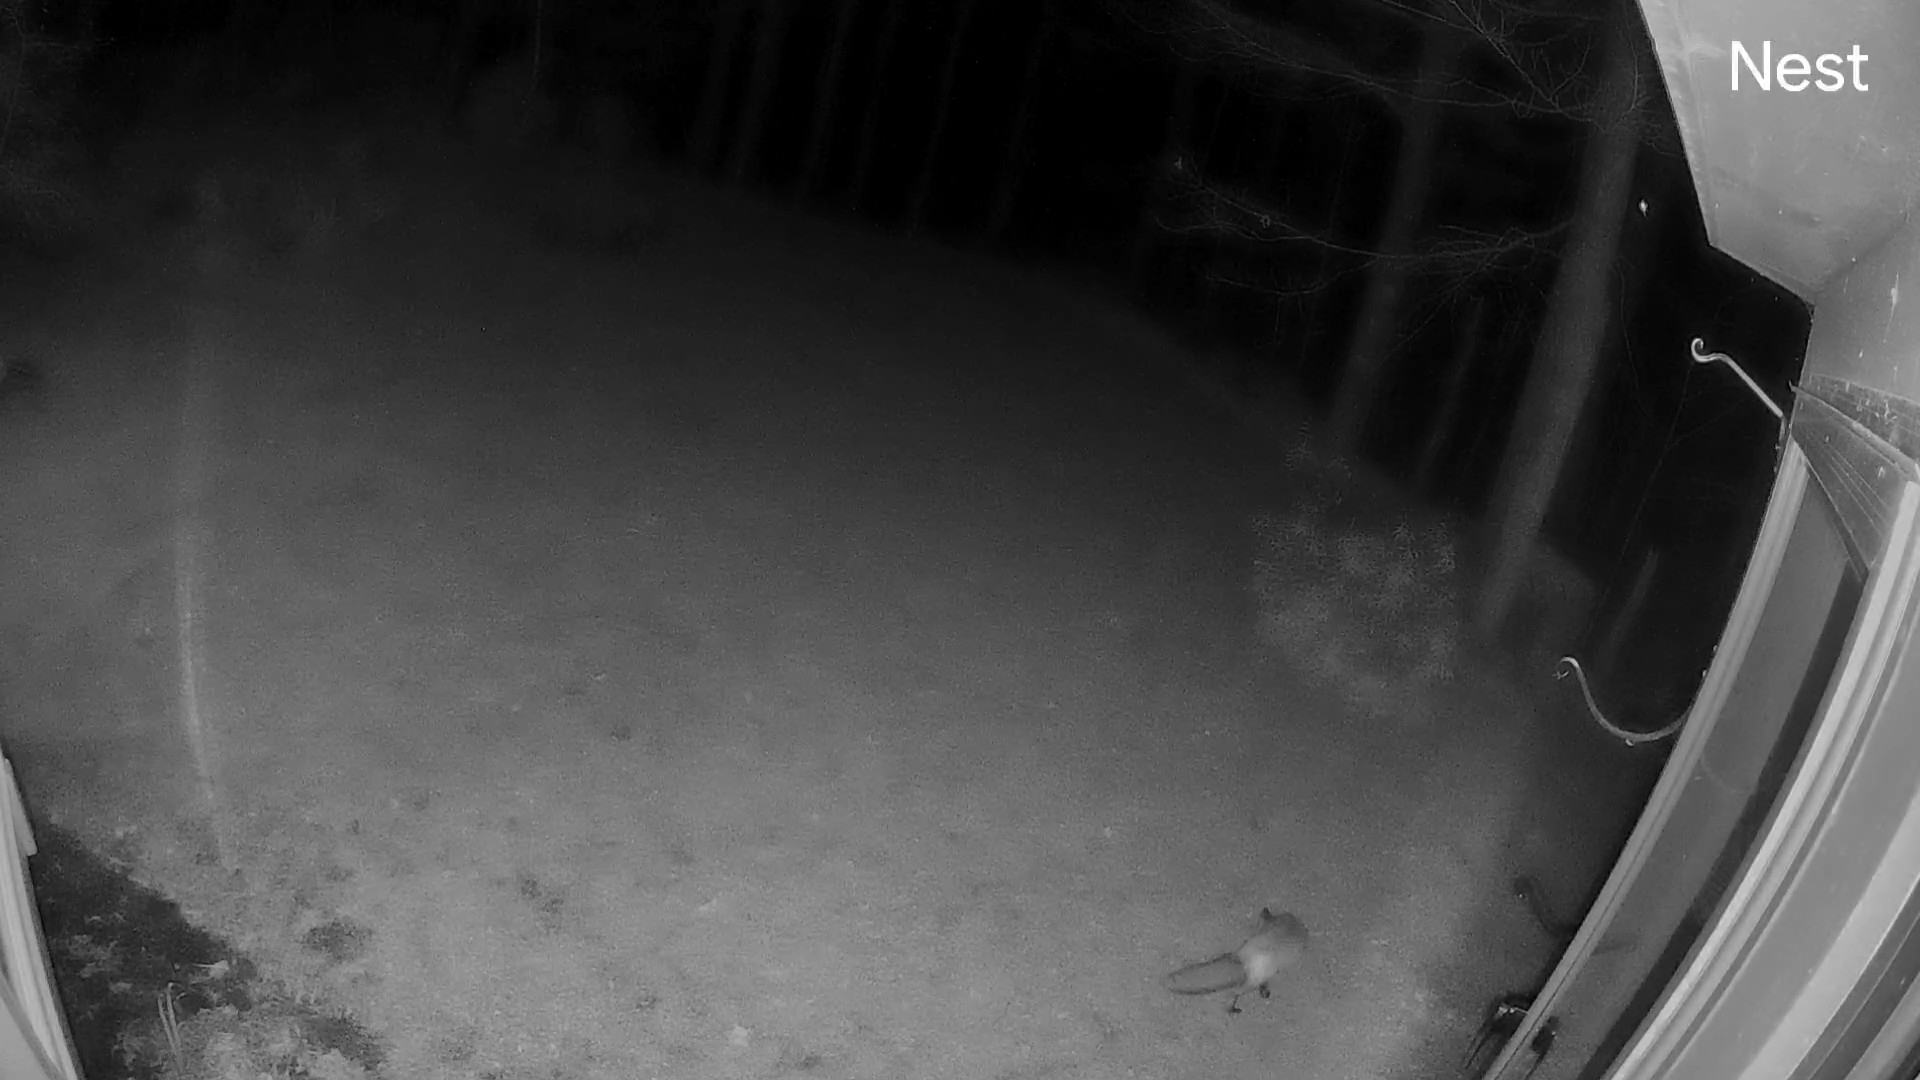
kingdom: Animalia
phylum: Chordata
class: Mammalia
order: Carnivora
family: Canidae
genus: Vulpes
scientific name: Vulpes vulpes
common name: Red fox
